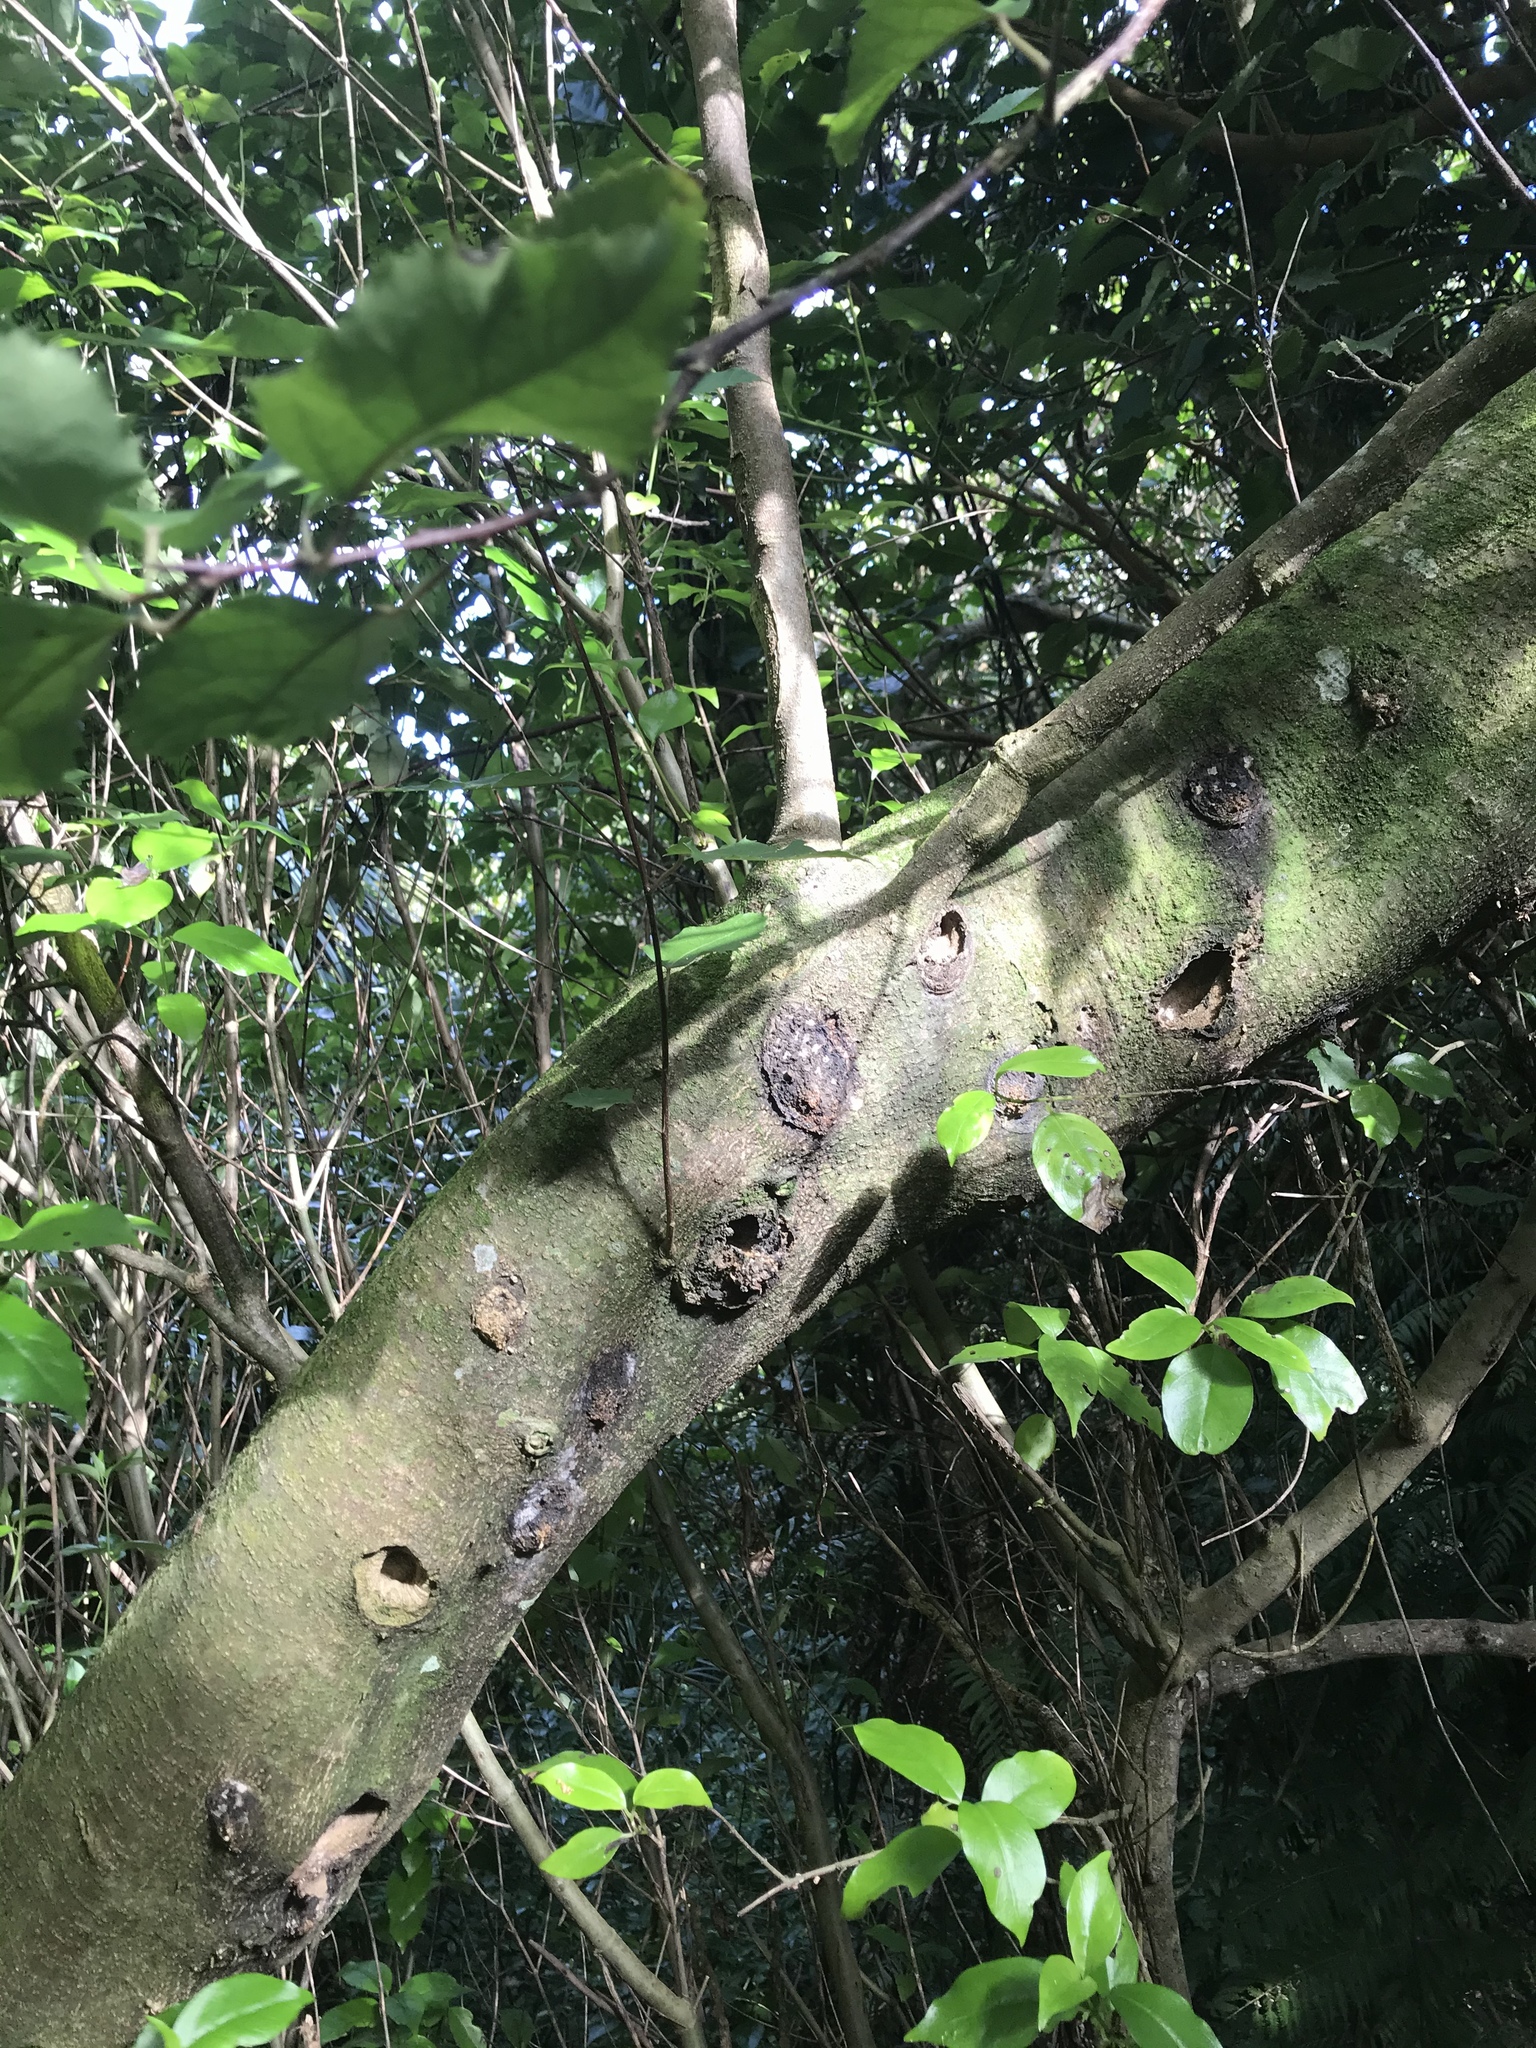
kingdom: Animalia
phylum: Arthropoda
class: Insecta
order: Lepidoptera
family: Hepialidae
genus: Aenetus
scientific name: Aenetus virescens
